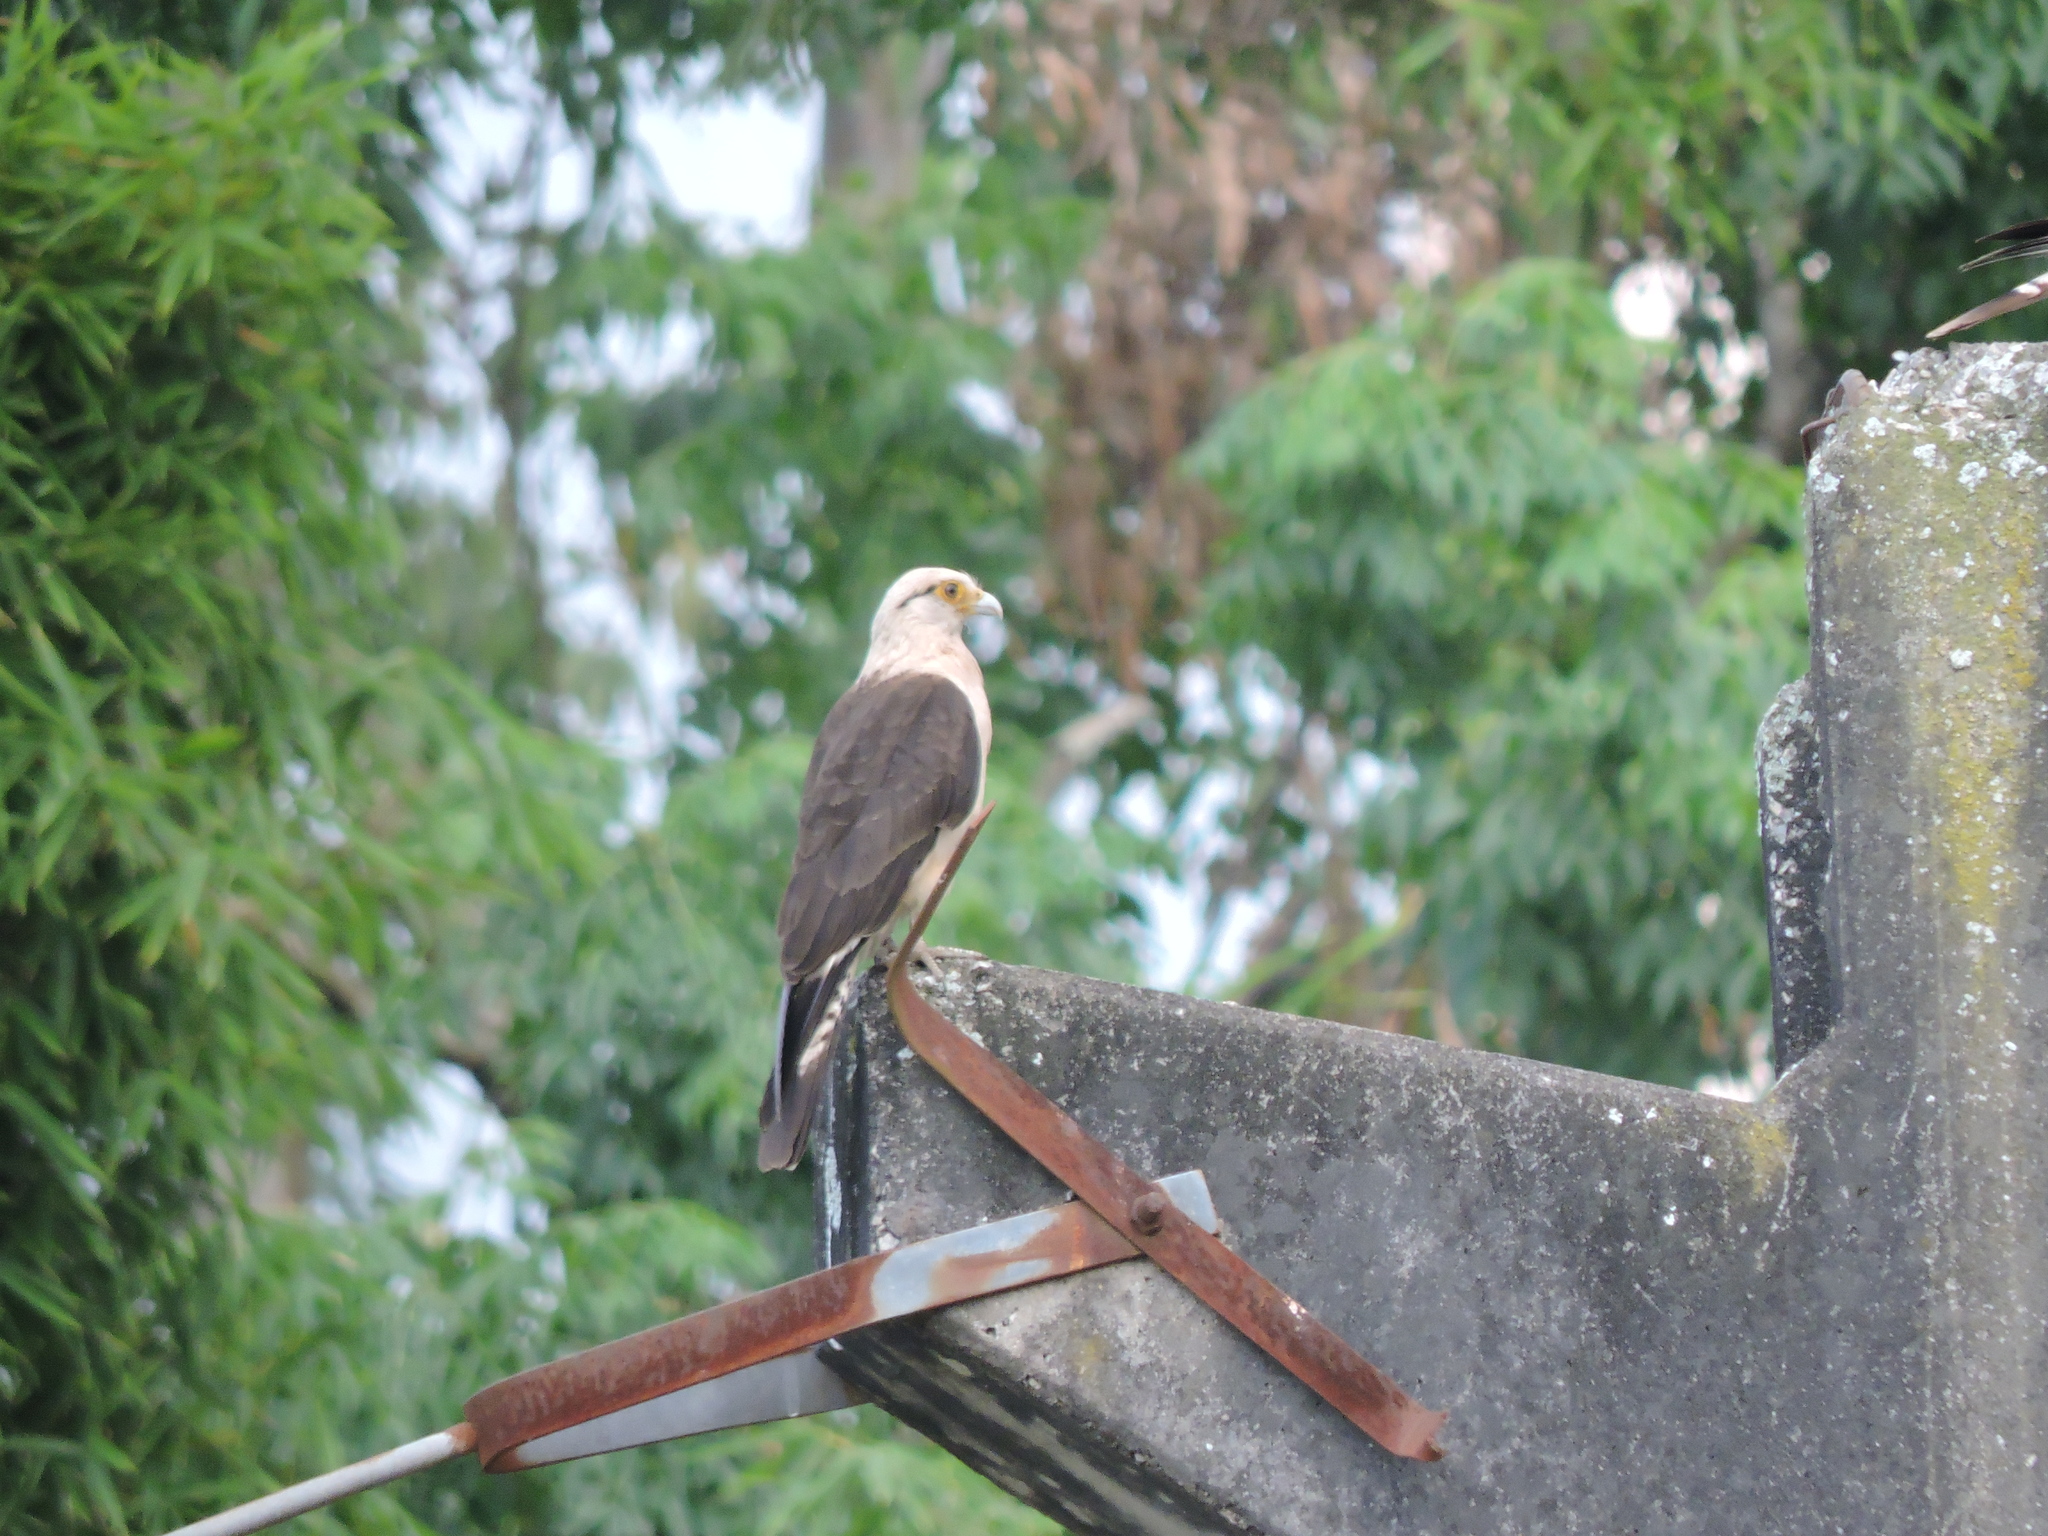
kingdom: Animalia
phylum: Chordata
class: Aves
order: Falconiformes
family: Falconidae
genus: Daptrius
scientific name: Daptrius
